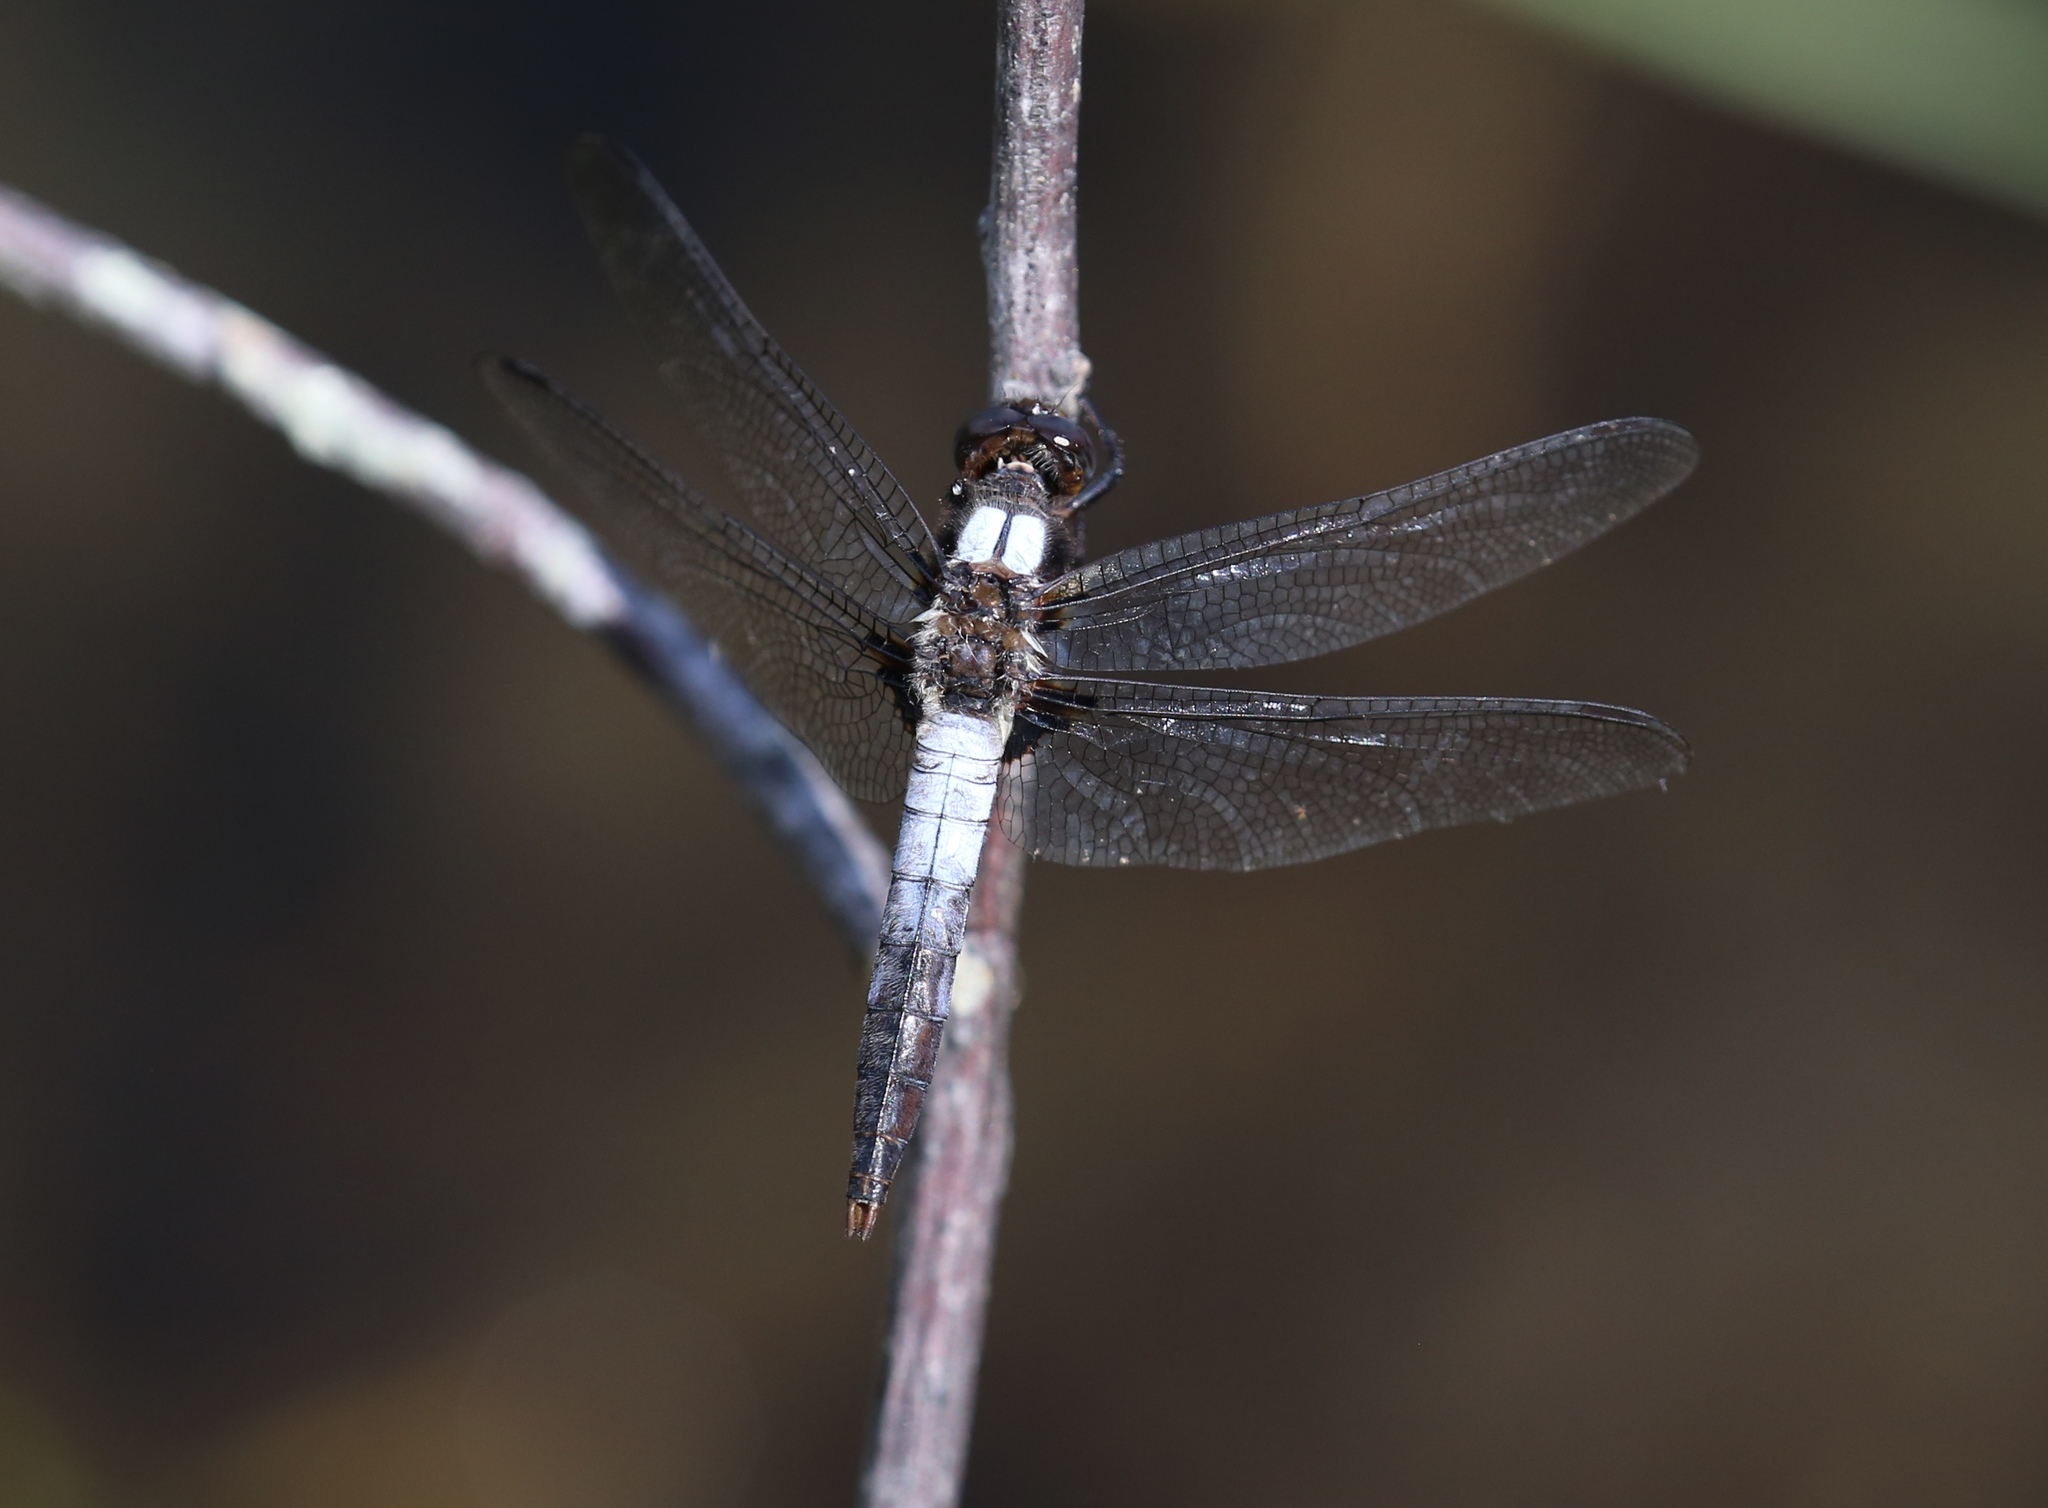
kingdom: Animalia
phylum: Arthropoda
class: Insecta
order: Odonata
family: Libellulidae
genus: Ladona
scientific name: Ladona julia
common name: Chalk-fronted corporal
